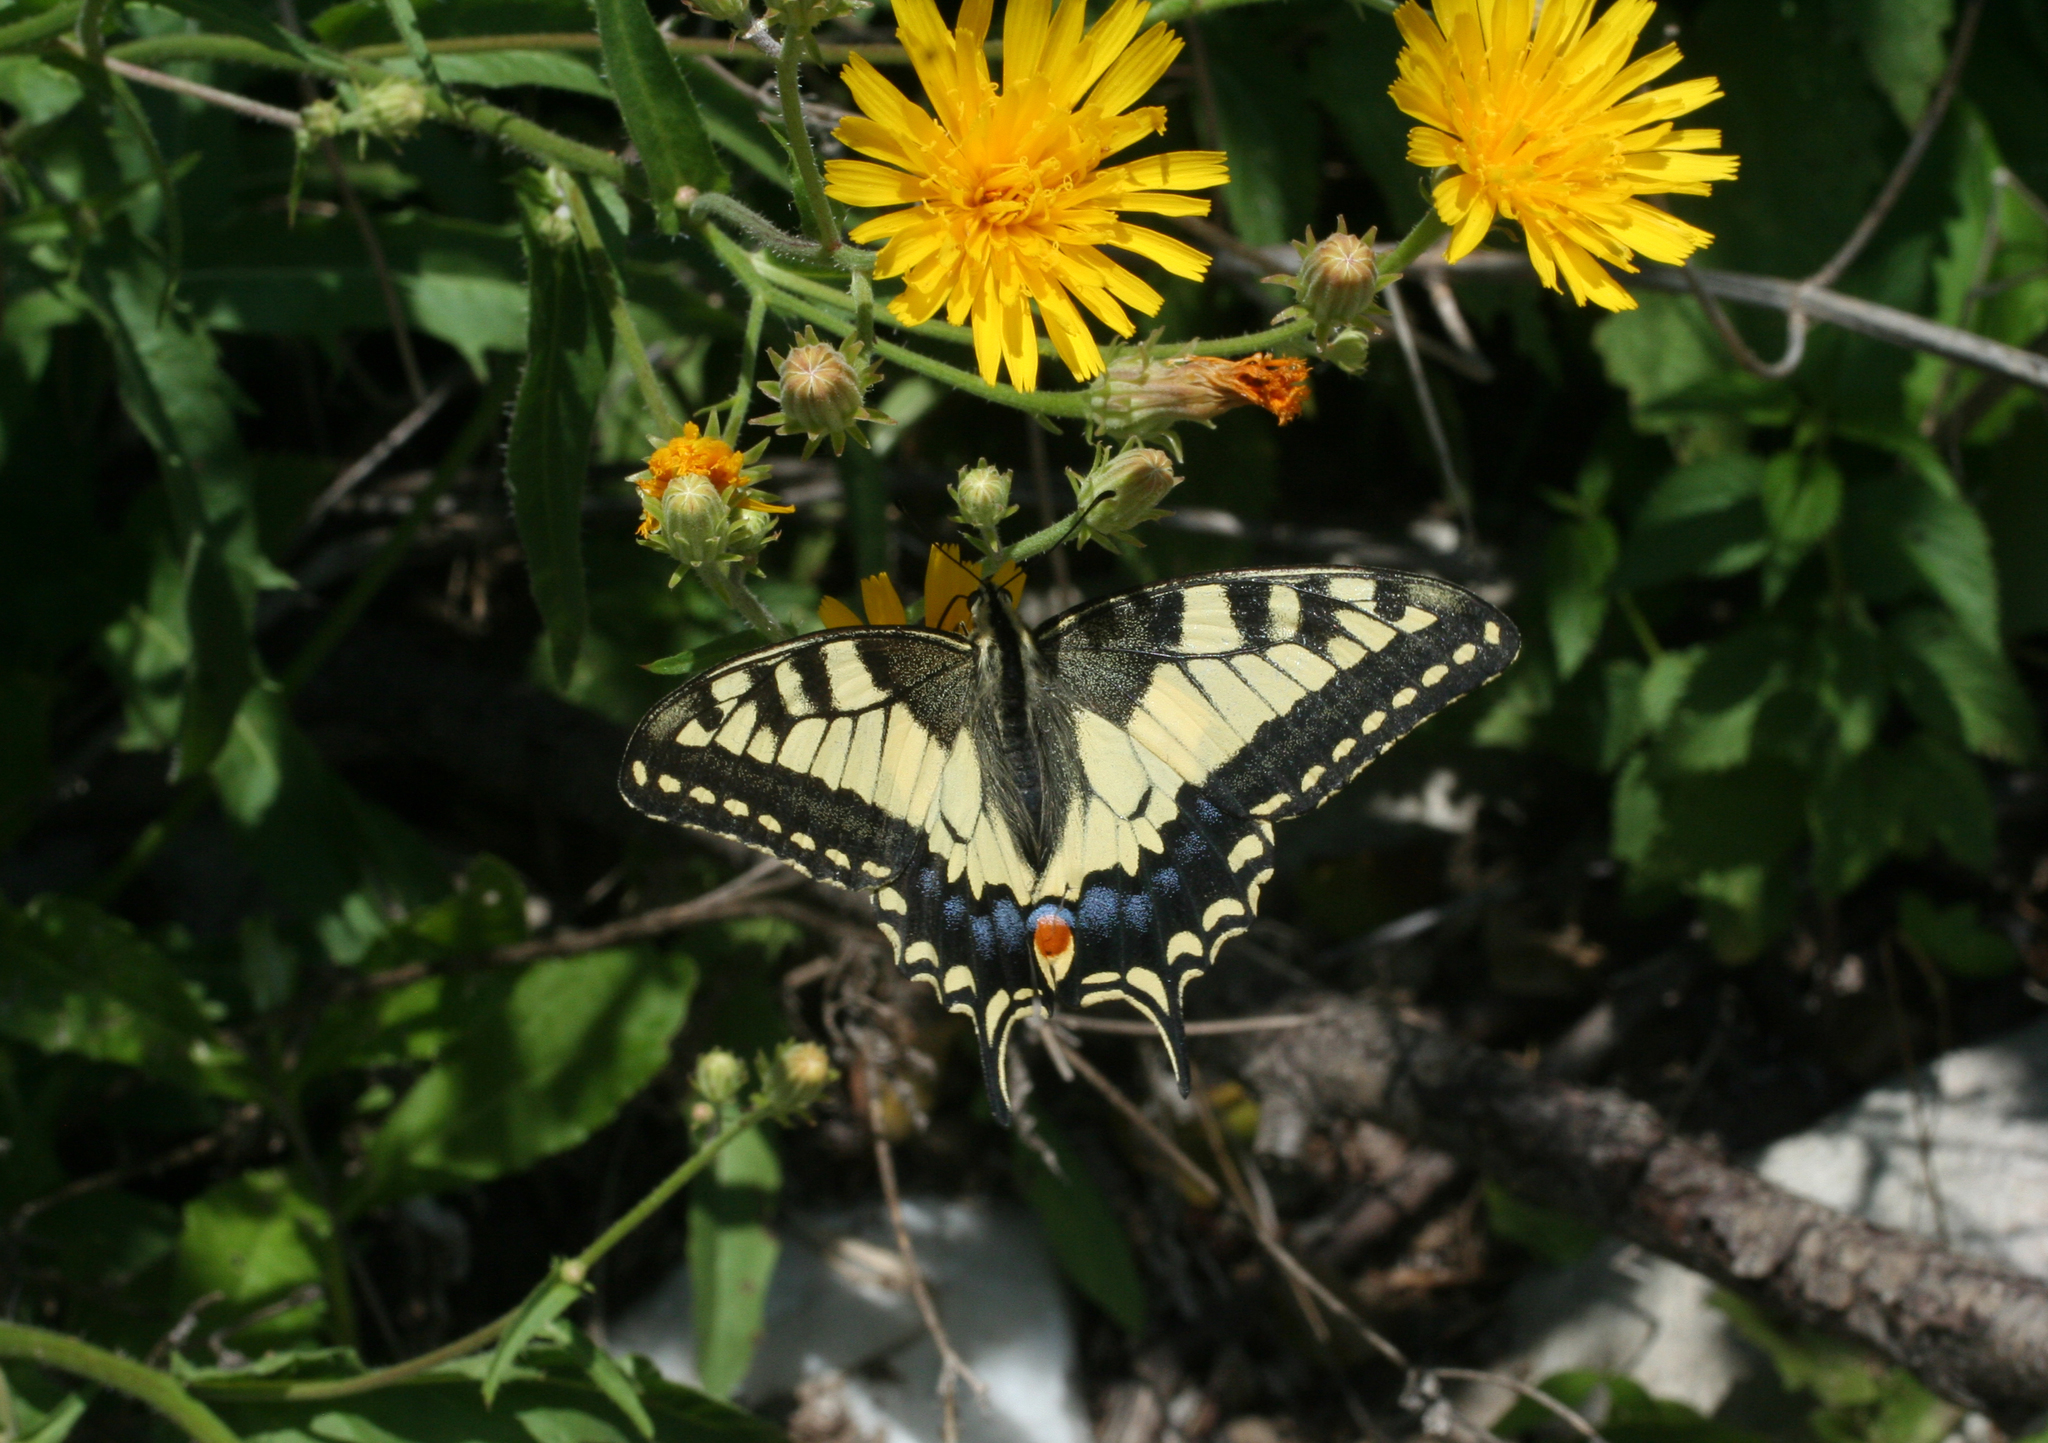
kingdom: Animalia
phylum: Arthropoda
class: Insecta
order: Lepidoptera
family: Papilionidae
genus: Papilio
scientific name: Papilio machaon
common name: Swallowtail
